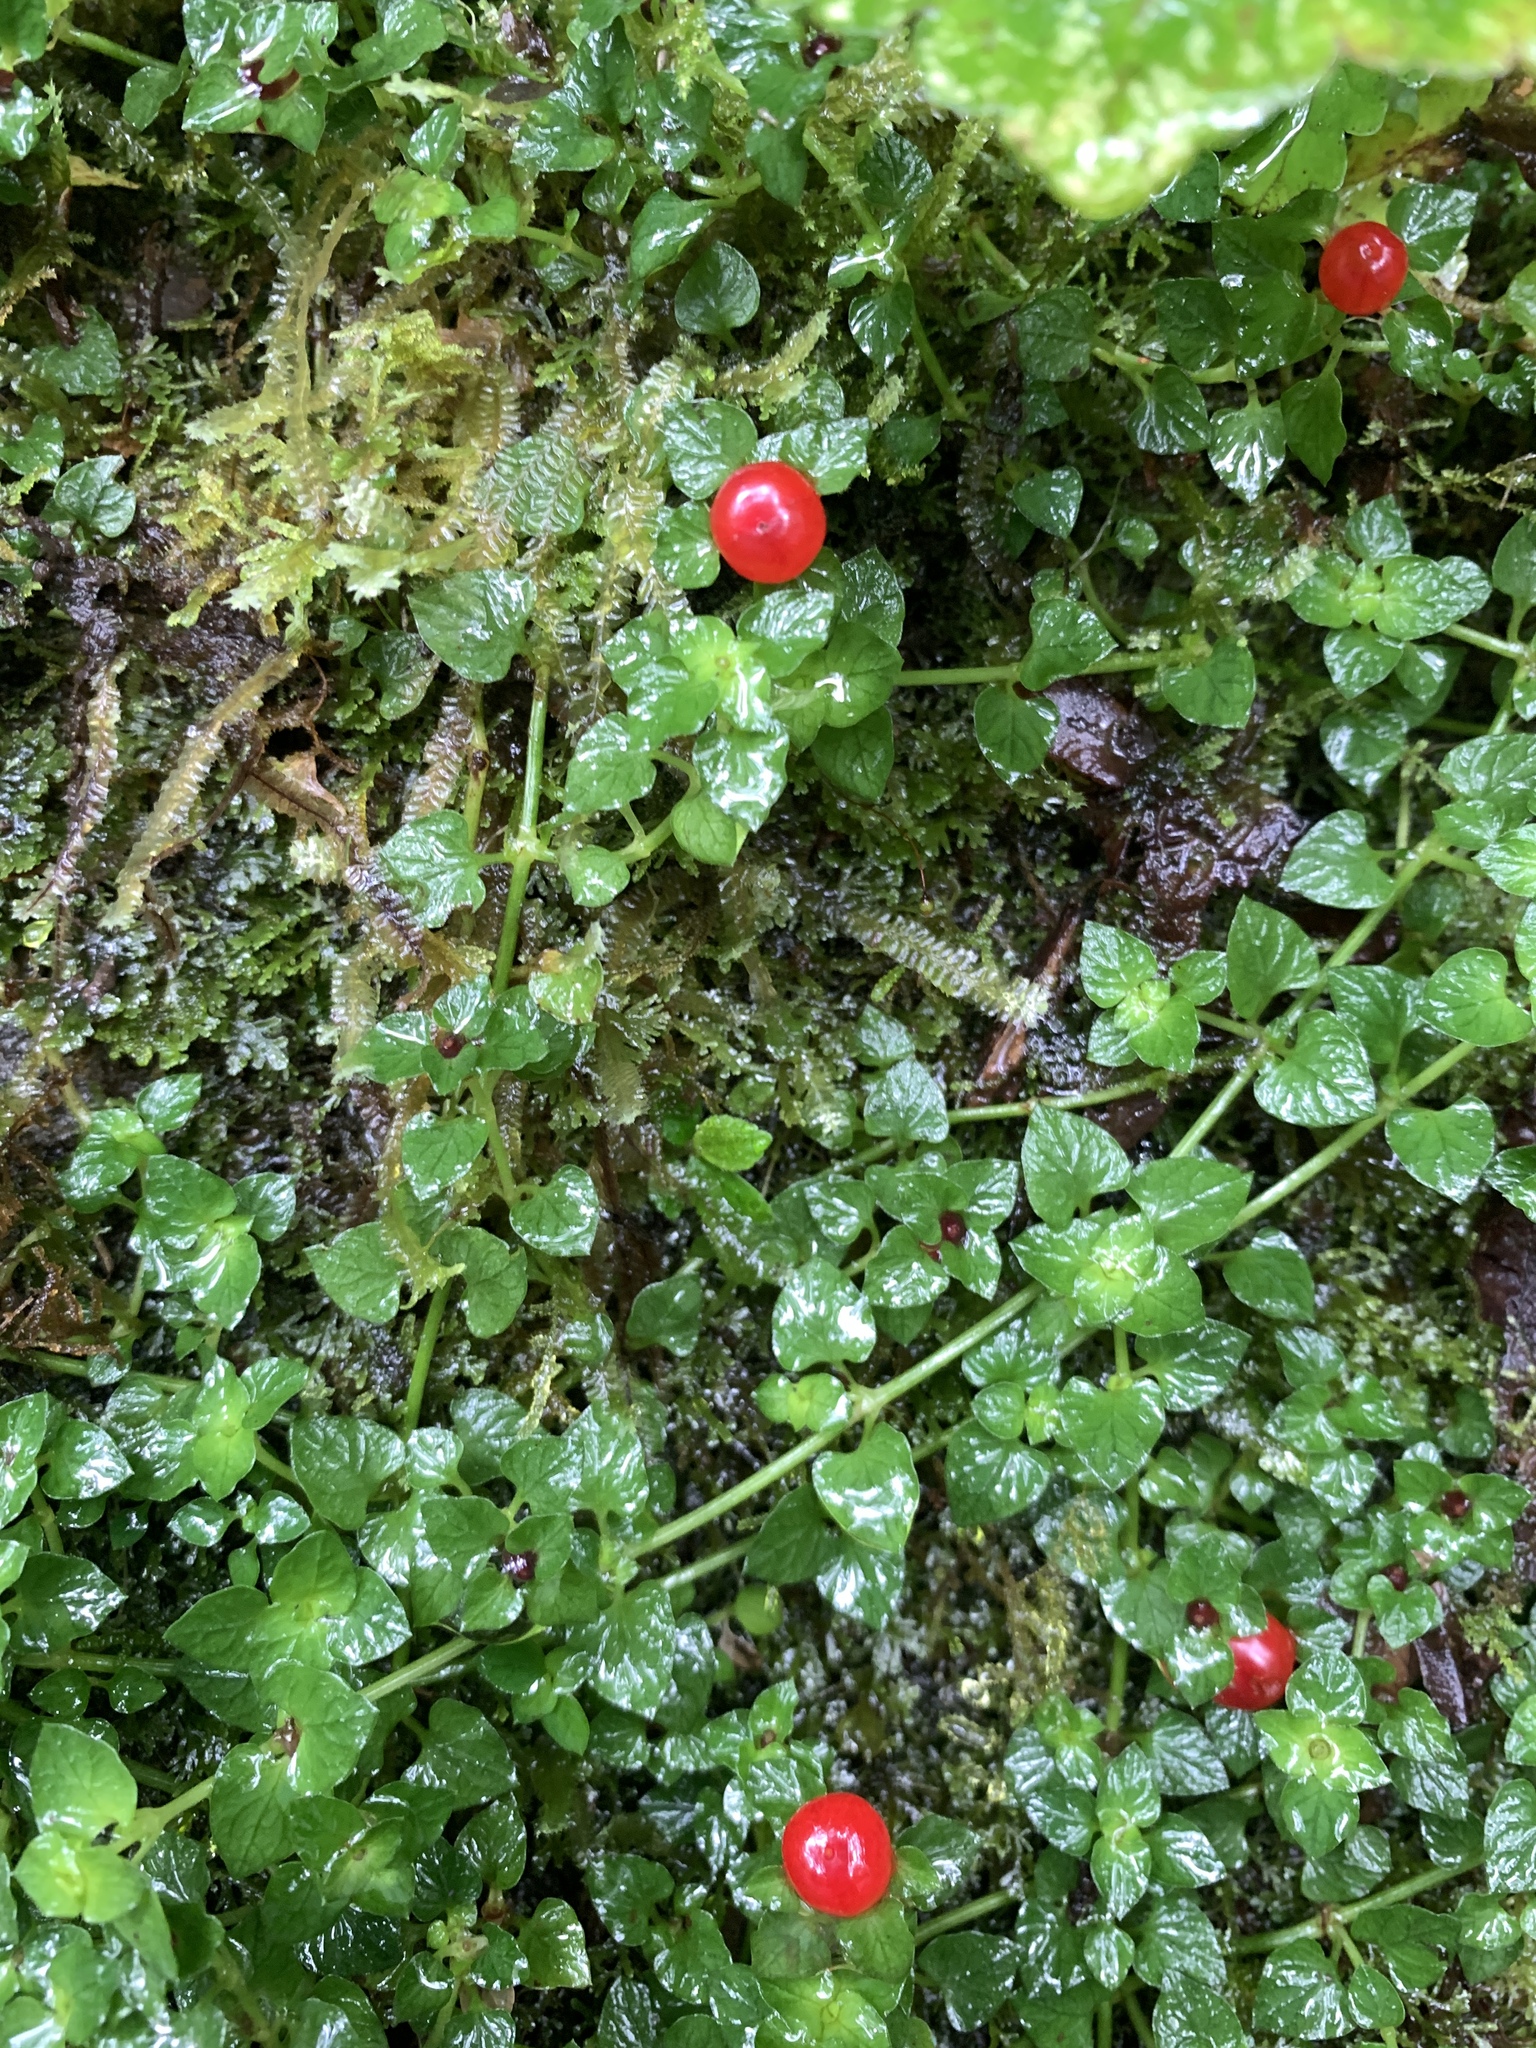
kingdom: Plantae
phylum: Tracheophyta
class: Magnoliopsida
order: Gentianales
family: Rubiaceae
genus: Nertera
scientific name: Nertera granadensis
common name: Beadplant
